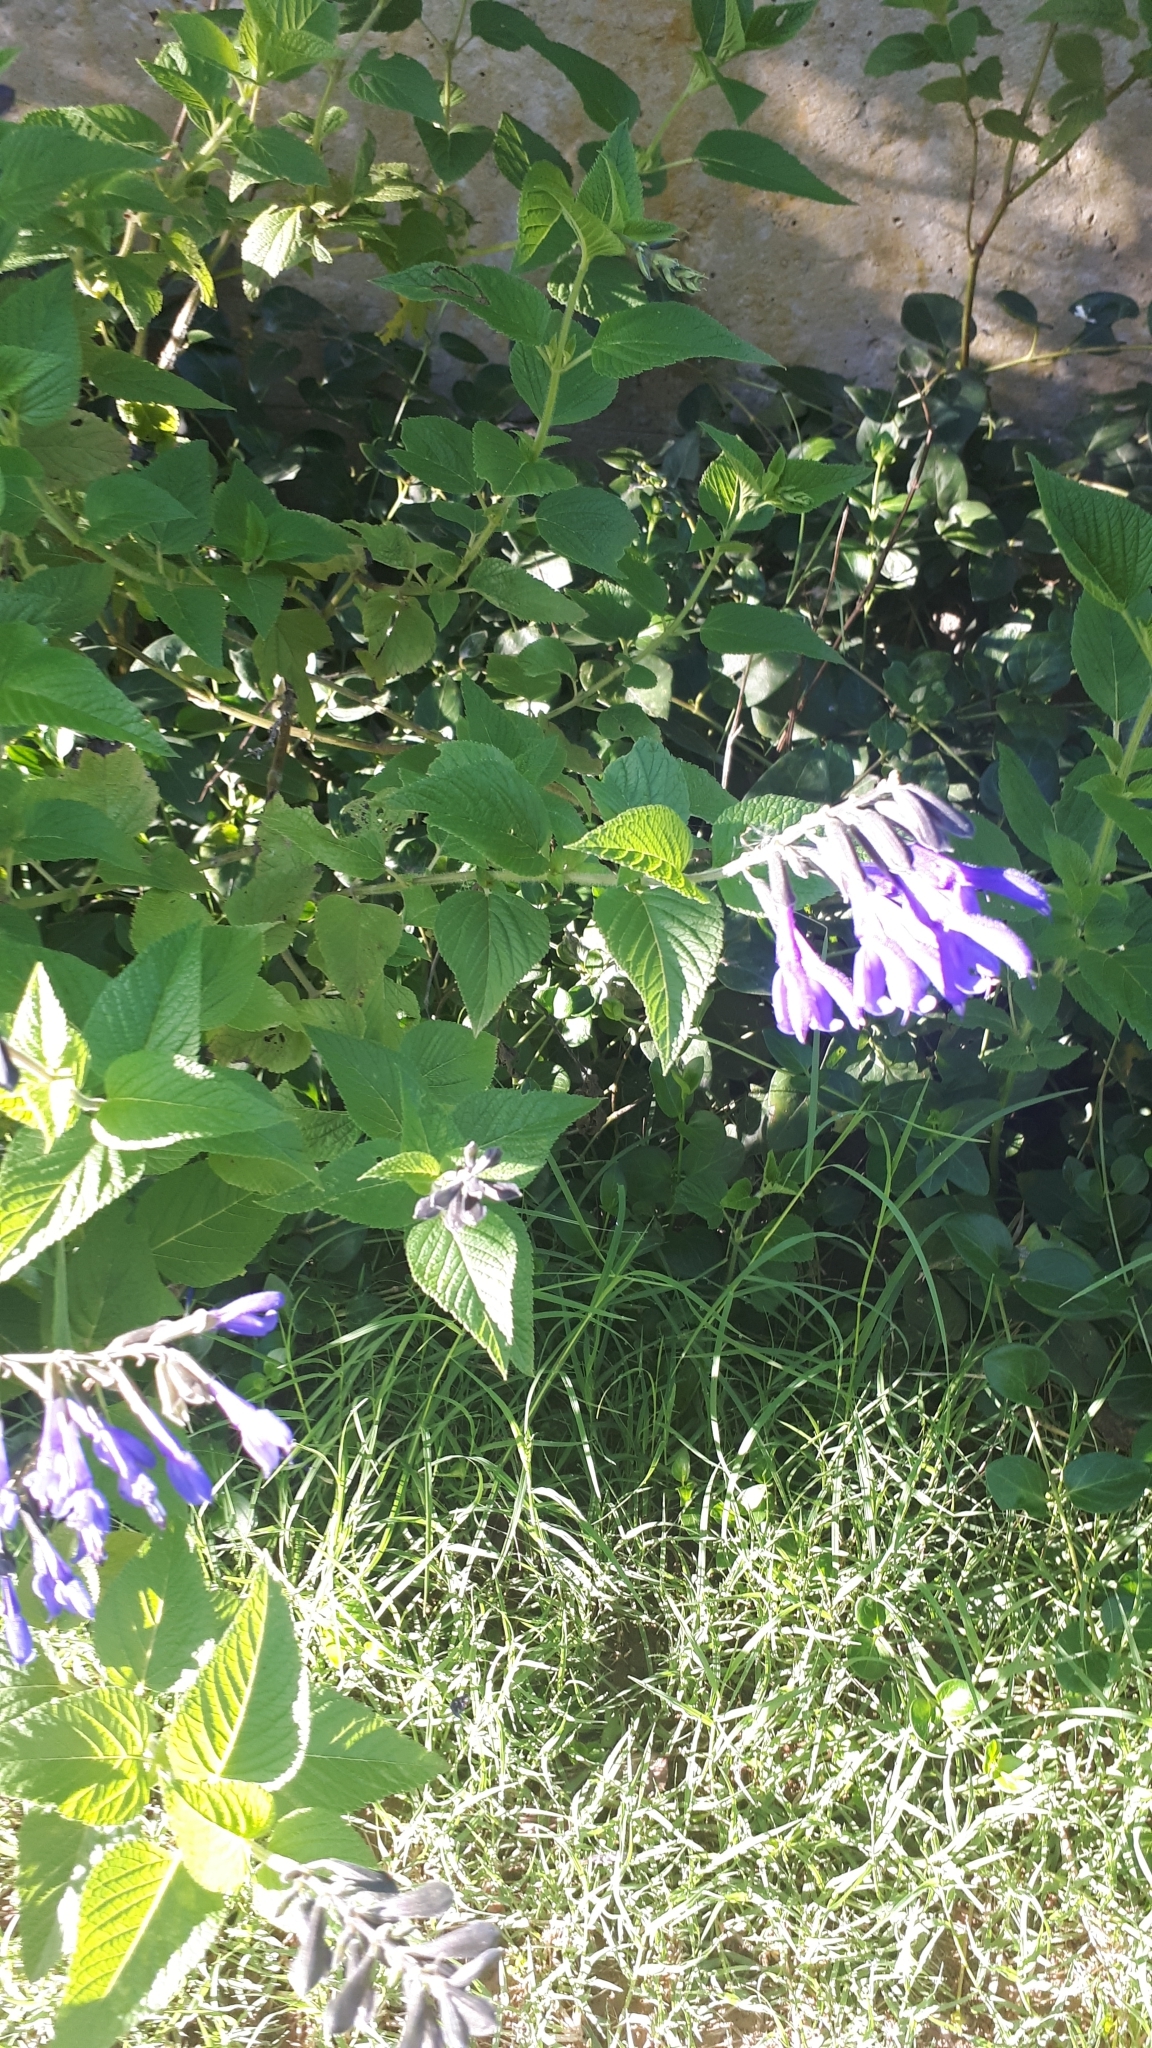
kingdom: Plantae
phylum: Tracheophyta
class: Magnoliopsida
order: Lamiales
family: Lamiaceae
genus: Salvia
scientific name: Salvia guaranitica
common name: Anise-scented sage
